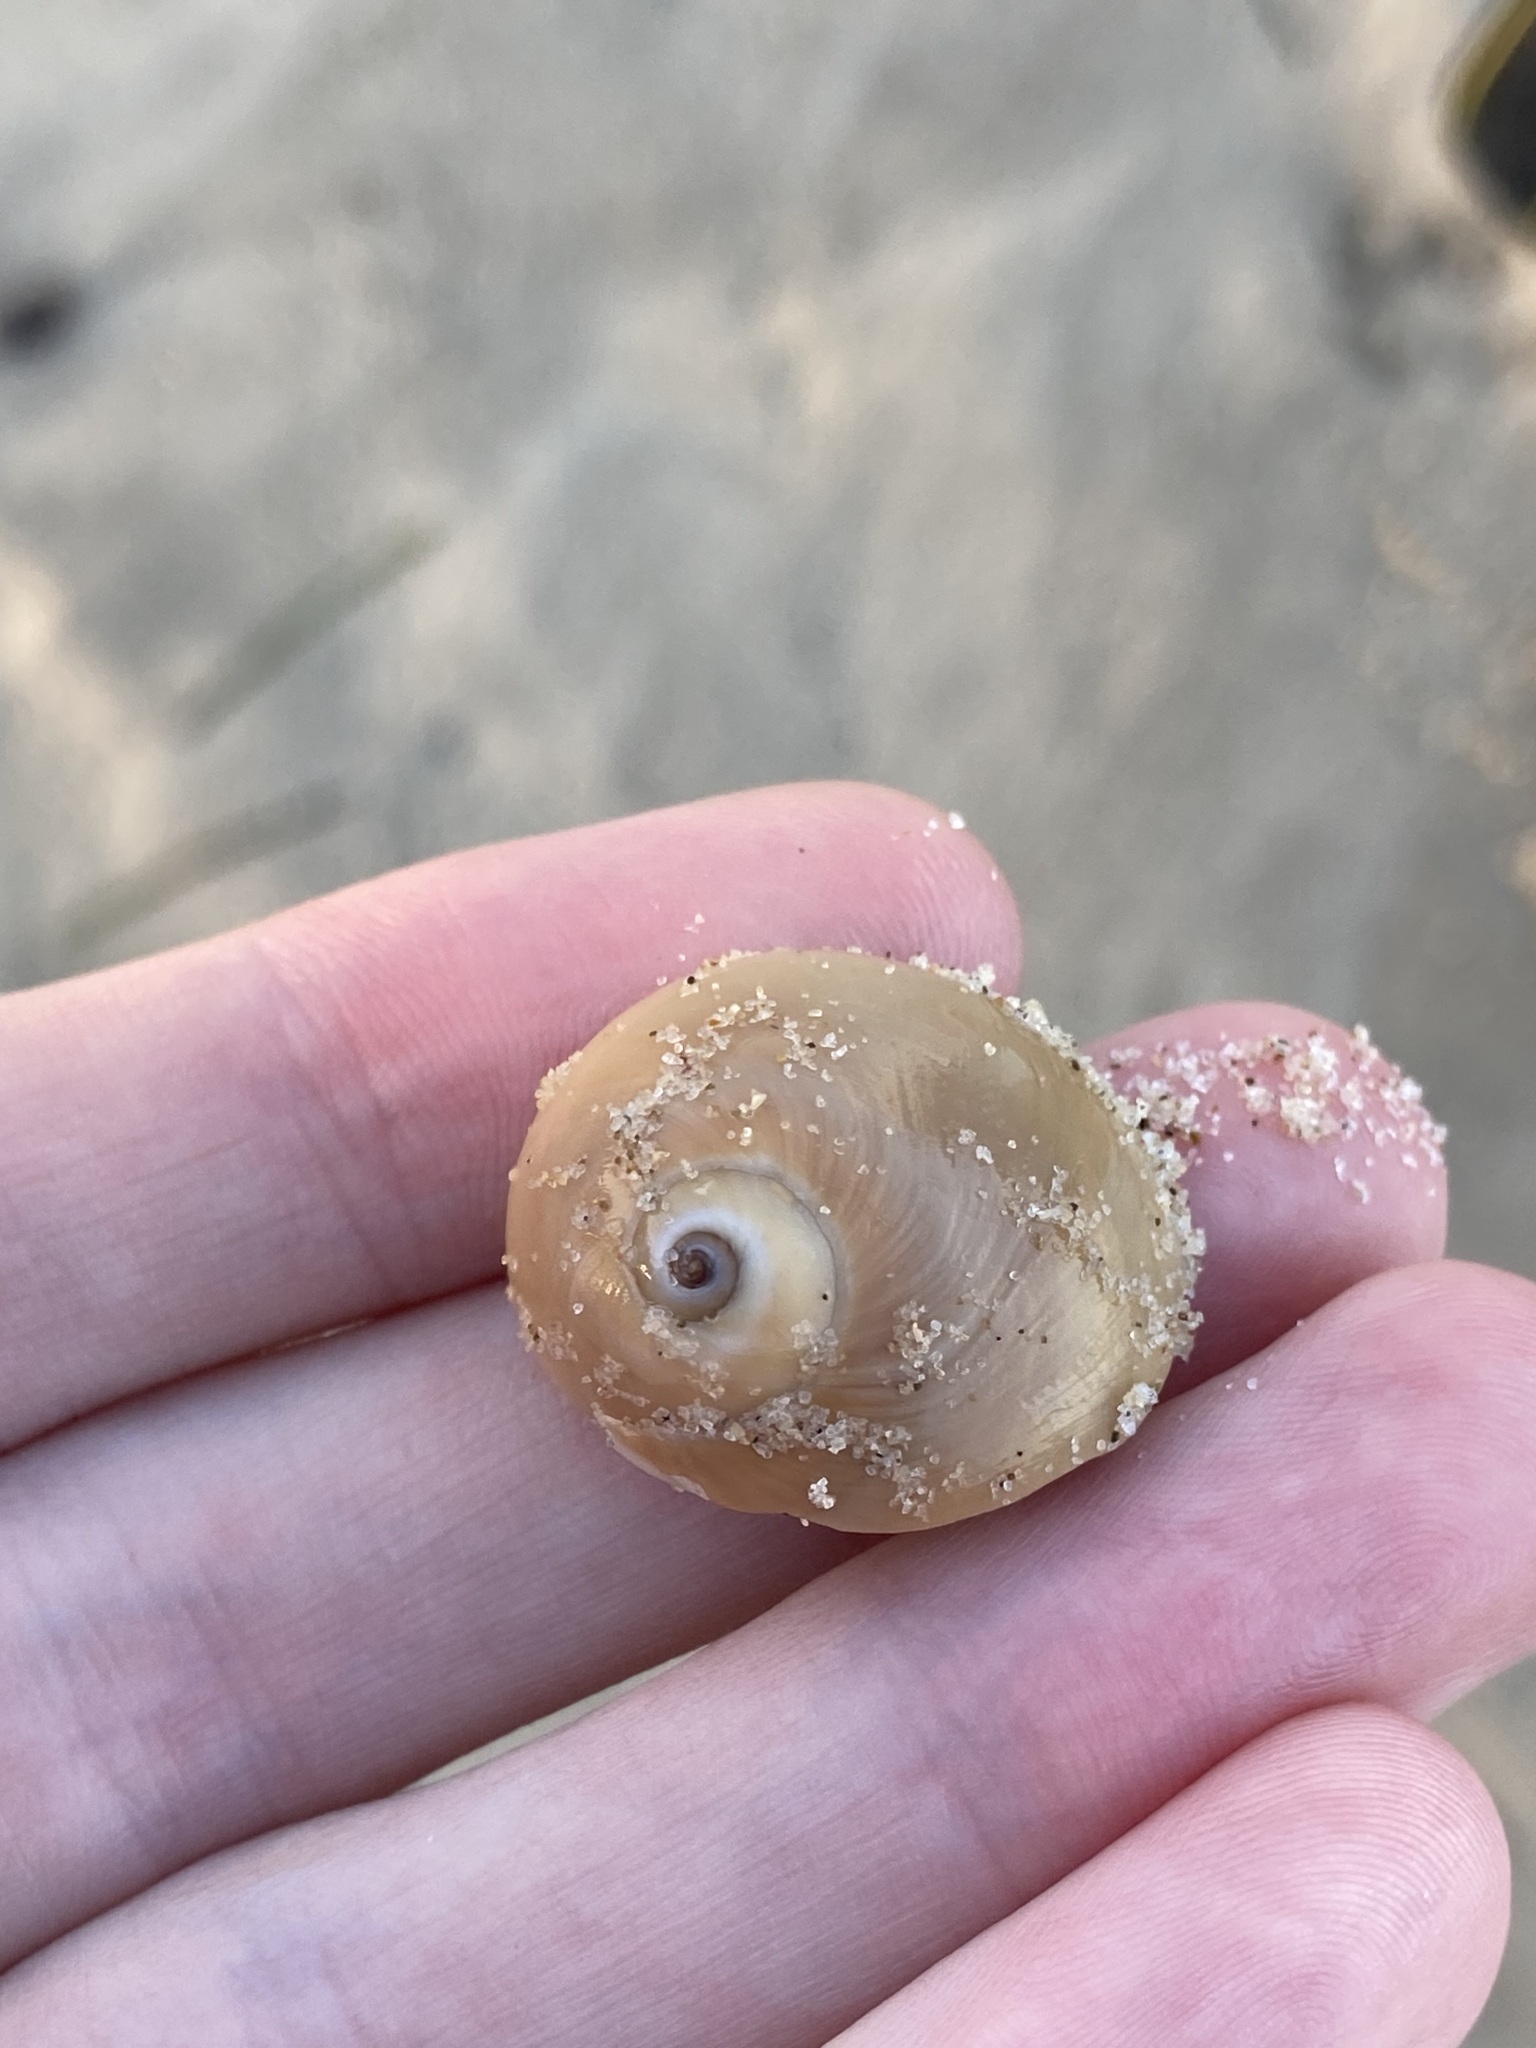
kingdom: Animalia
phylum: Mollusca
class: Gastropoda
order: Littorinimorpha
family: Naticidae
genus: Neverita
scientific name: Neverita didyma
